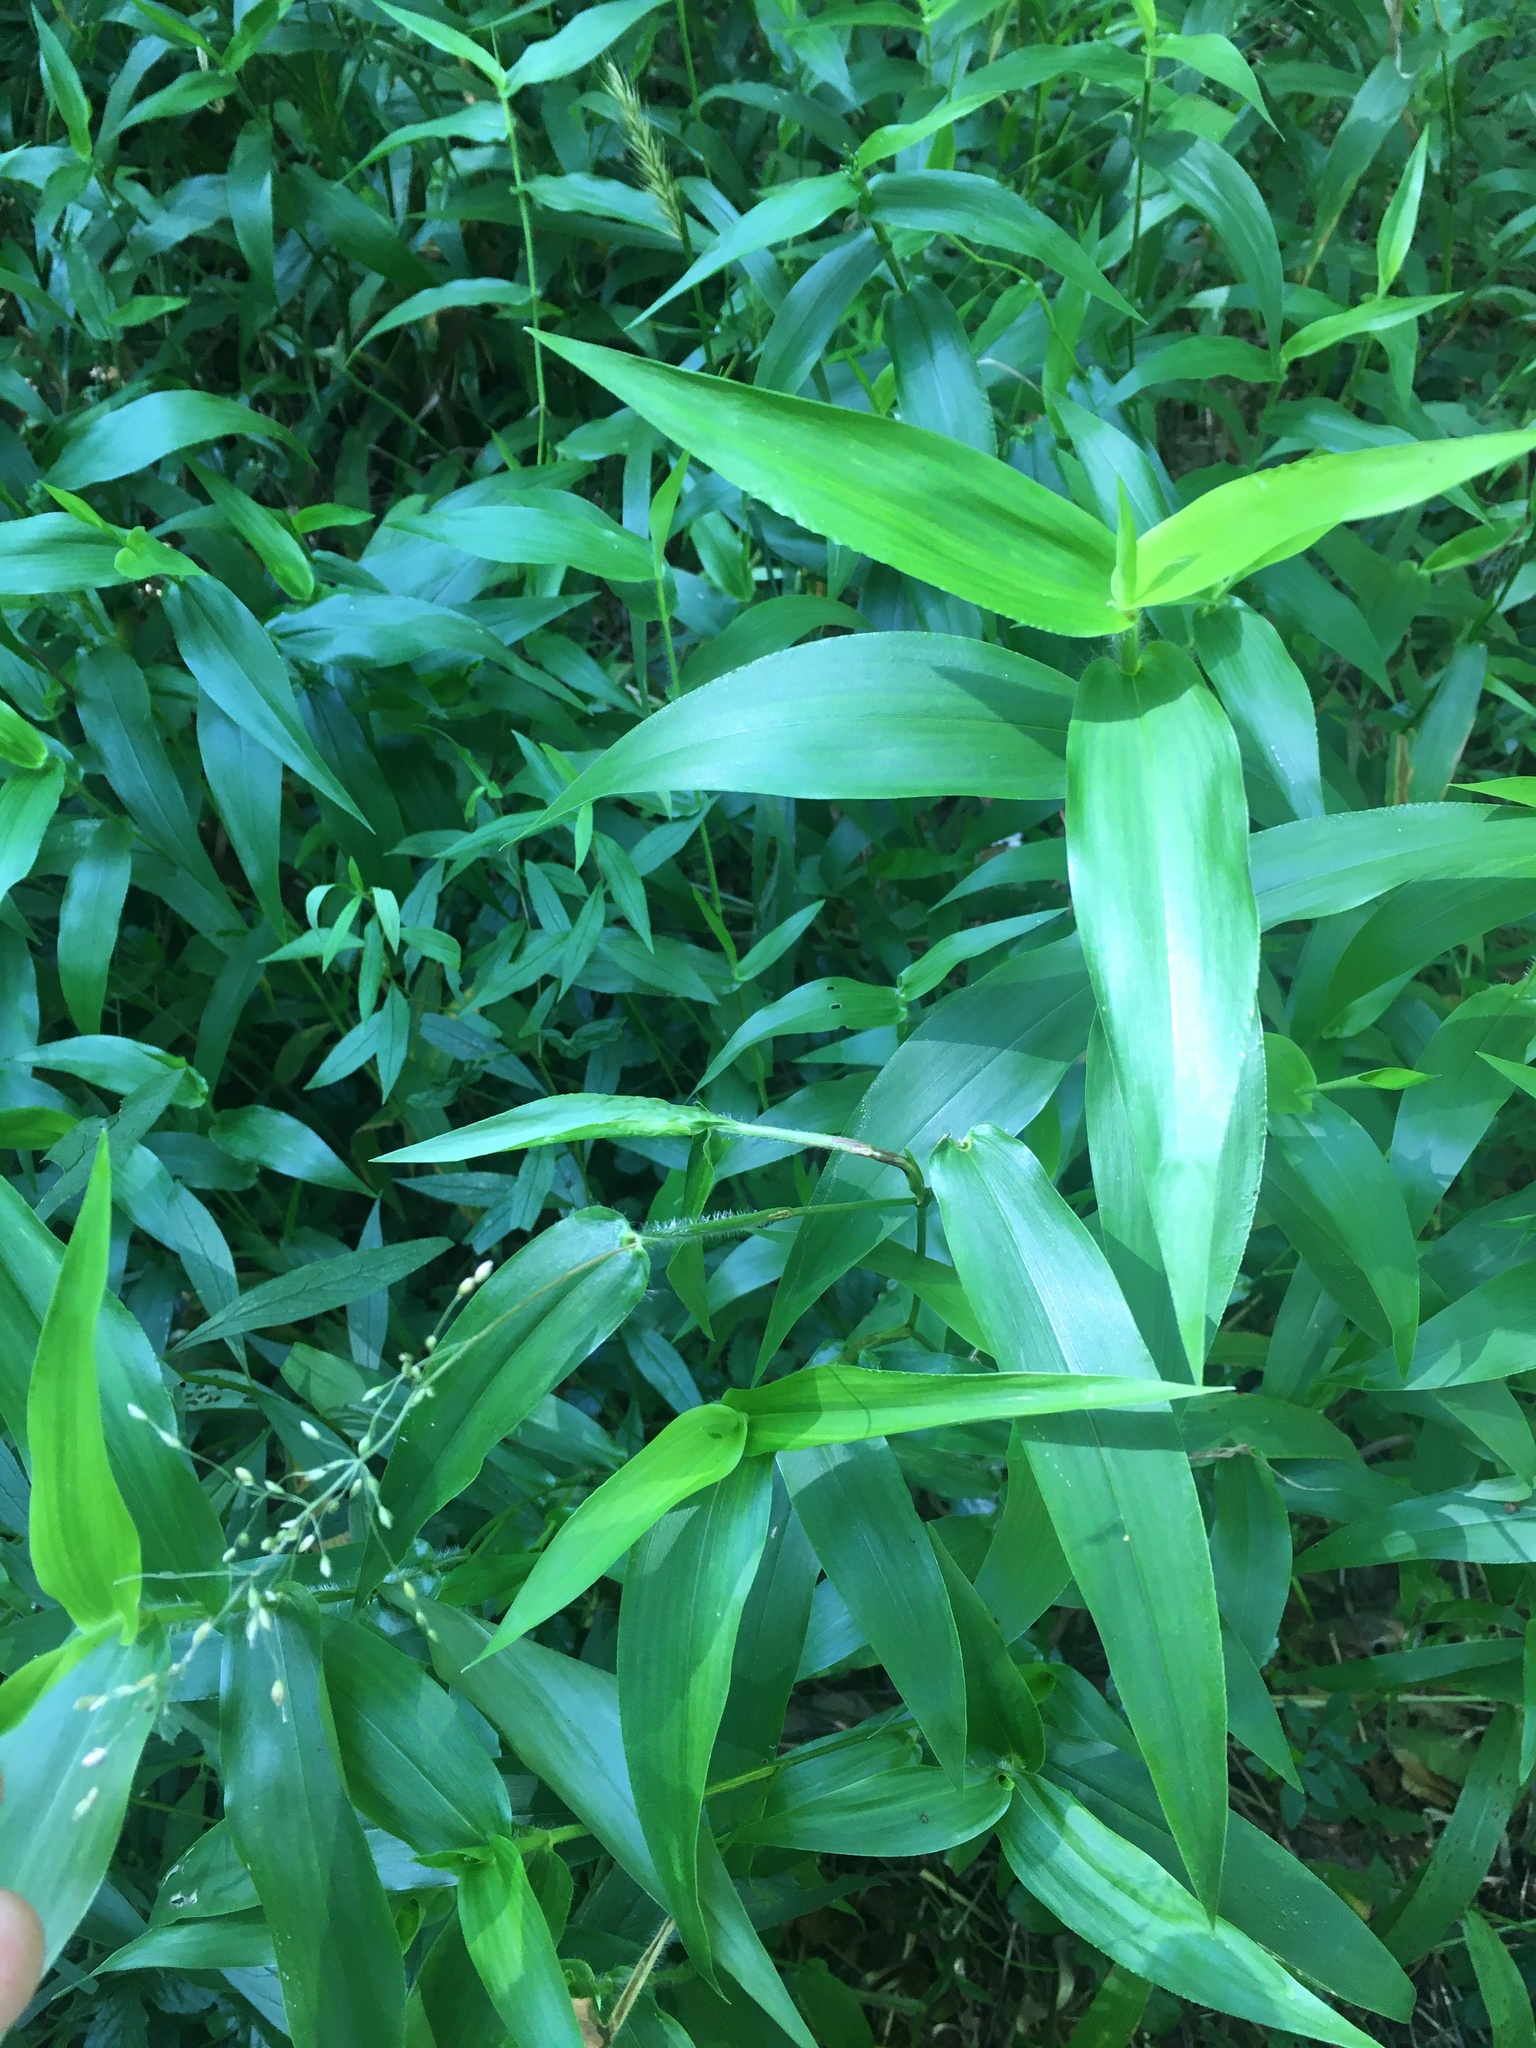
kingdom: Plantae
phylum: Tracheophyta
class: Liliopsida
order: Poales
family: Poaceae
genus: Dichanthelium
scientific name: Dichanthelium clandestinum
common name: Deer-tongue grass
